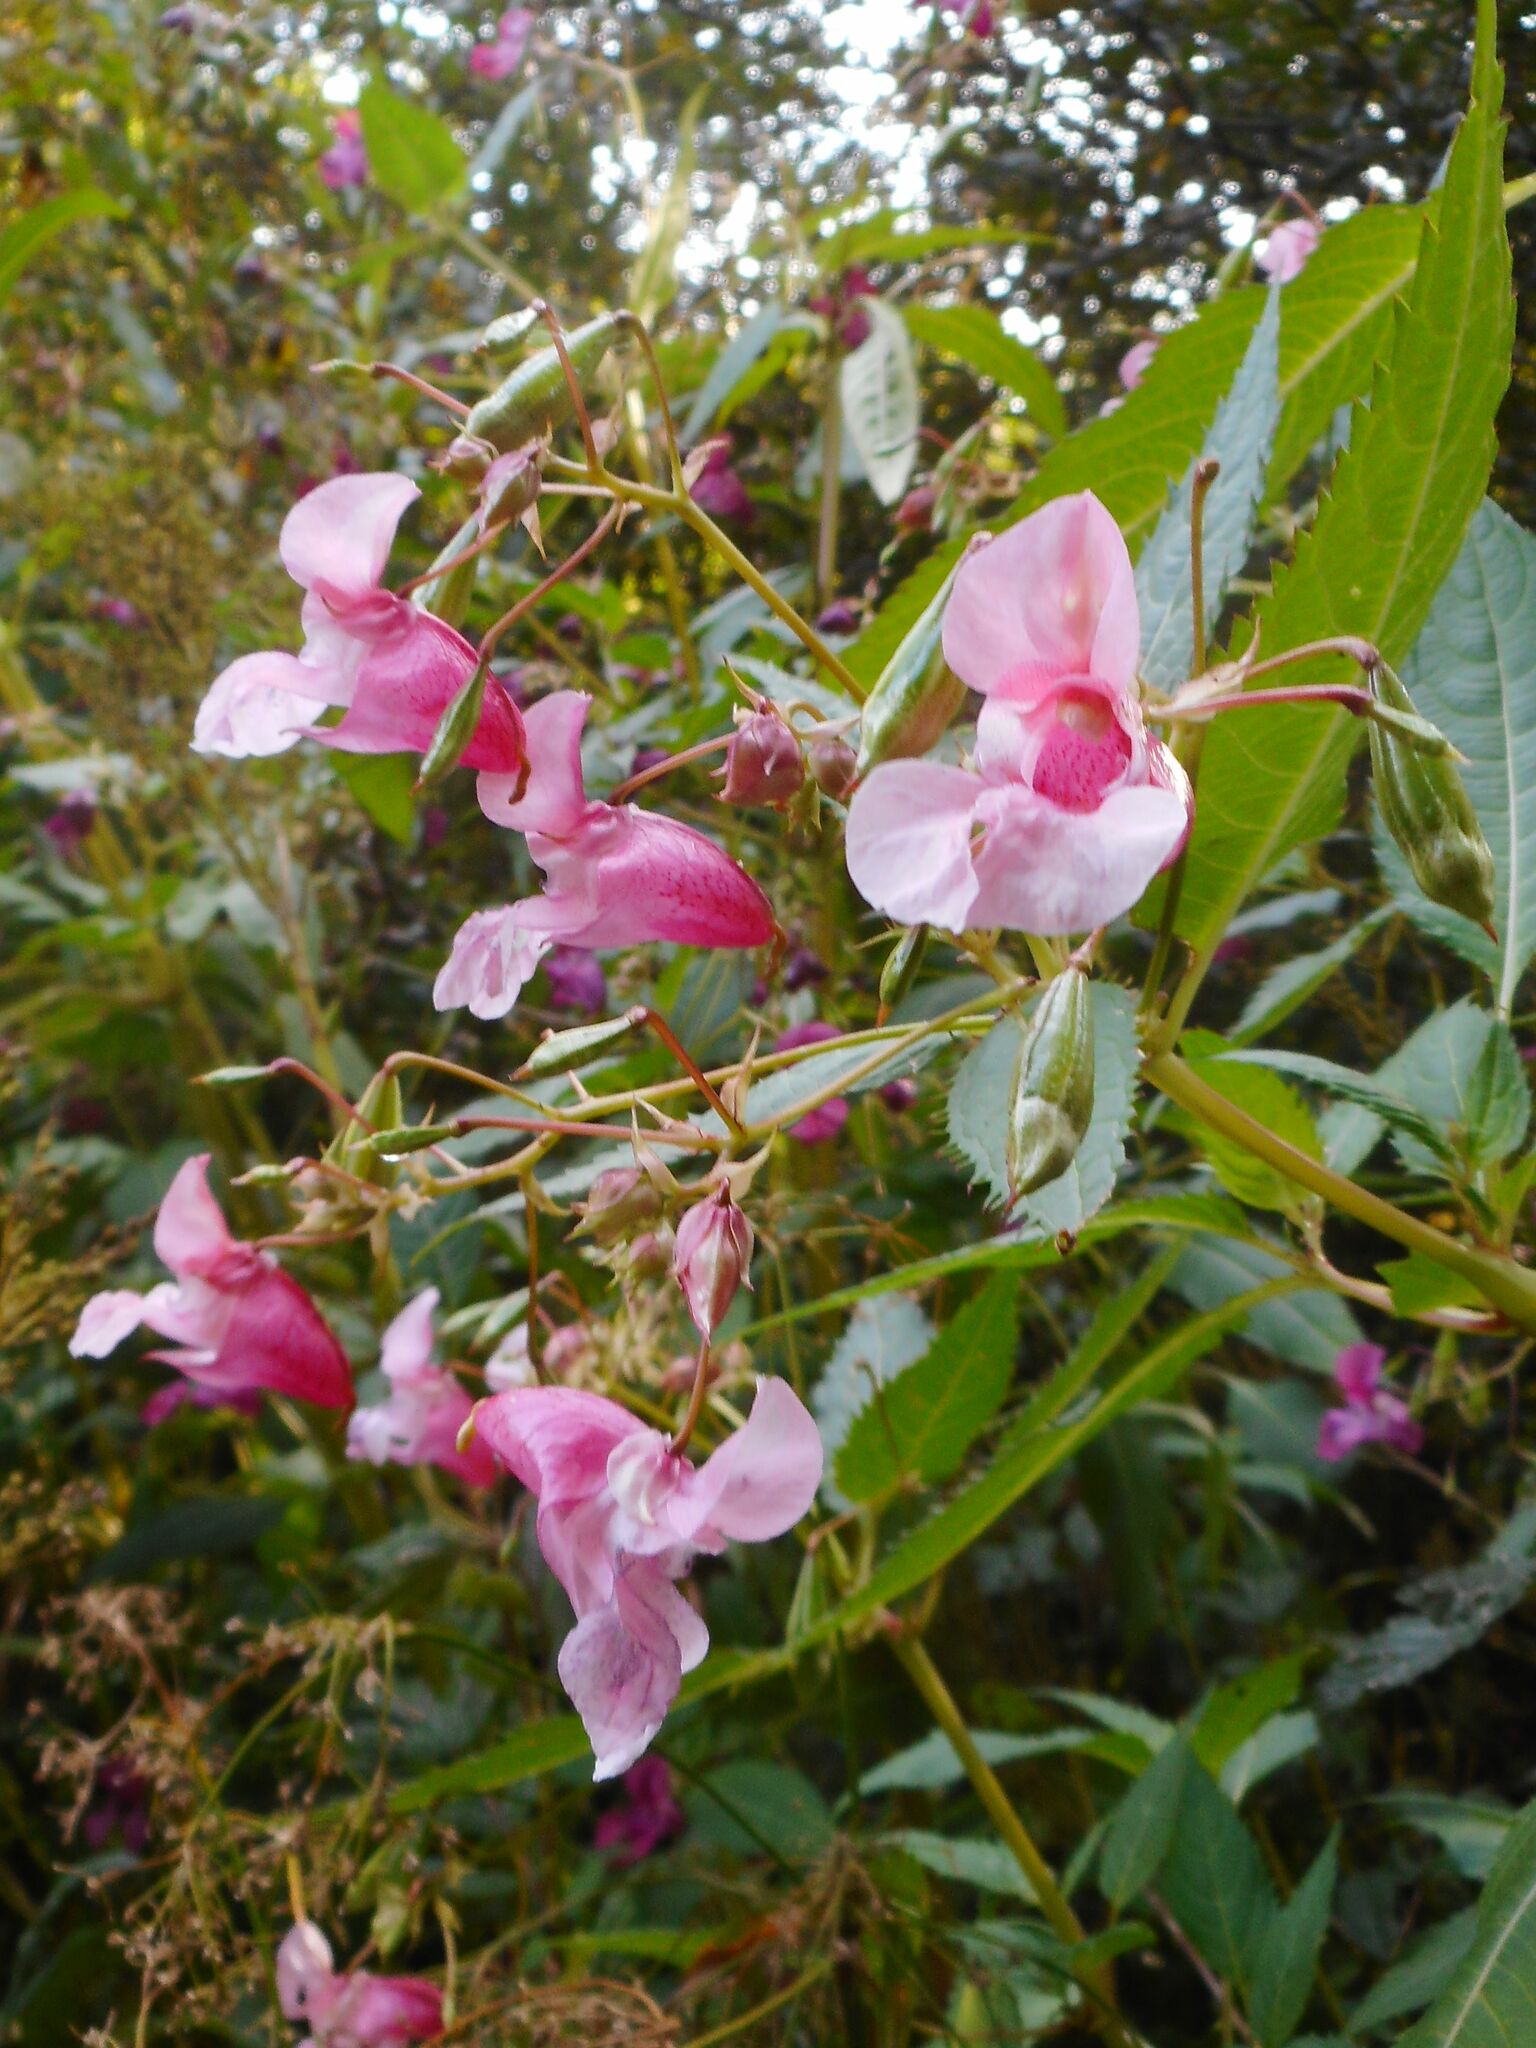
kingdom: Plantae
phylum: Tracheophyta
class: Magnoliopsida
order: Ericales
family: Balsaminaceae
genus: Impatiens
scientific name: Impatiens glandulifera
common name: Himalayan balsam
